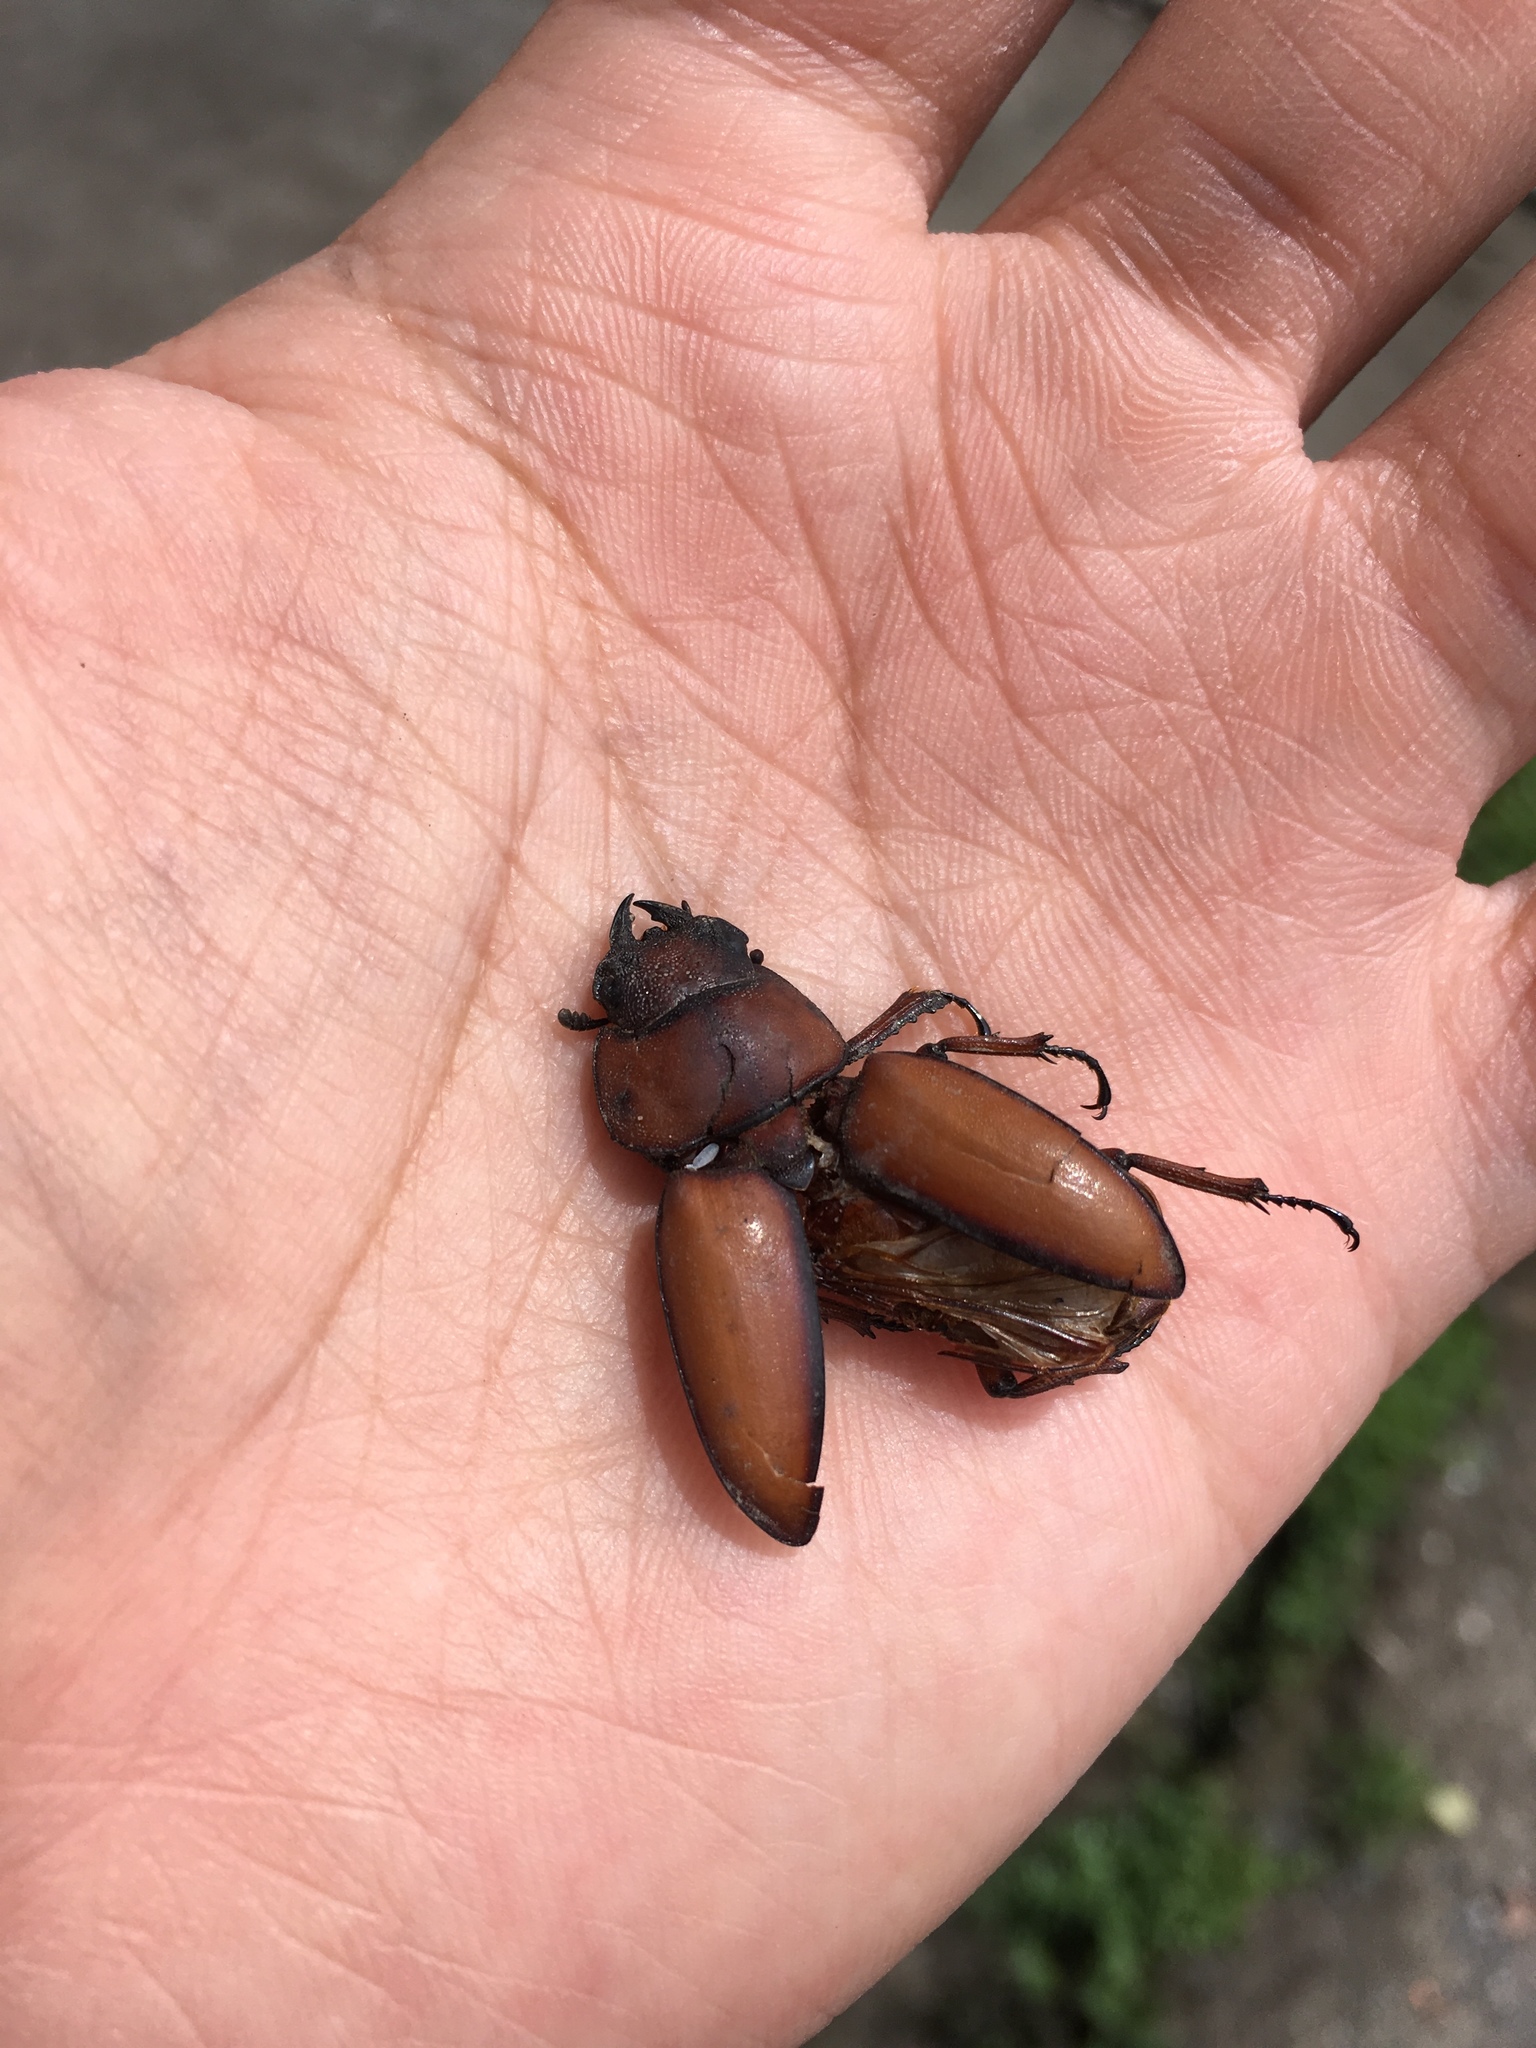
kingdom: Animalia
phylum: Arthropoda
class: Insecta
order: Coleoptera
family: Lucanidae
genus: Prosopocoilus
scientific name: Prosopocoilus astacoides
